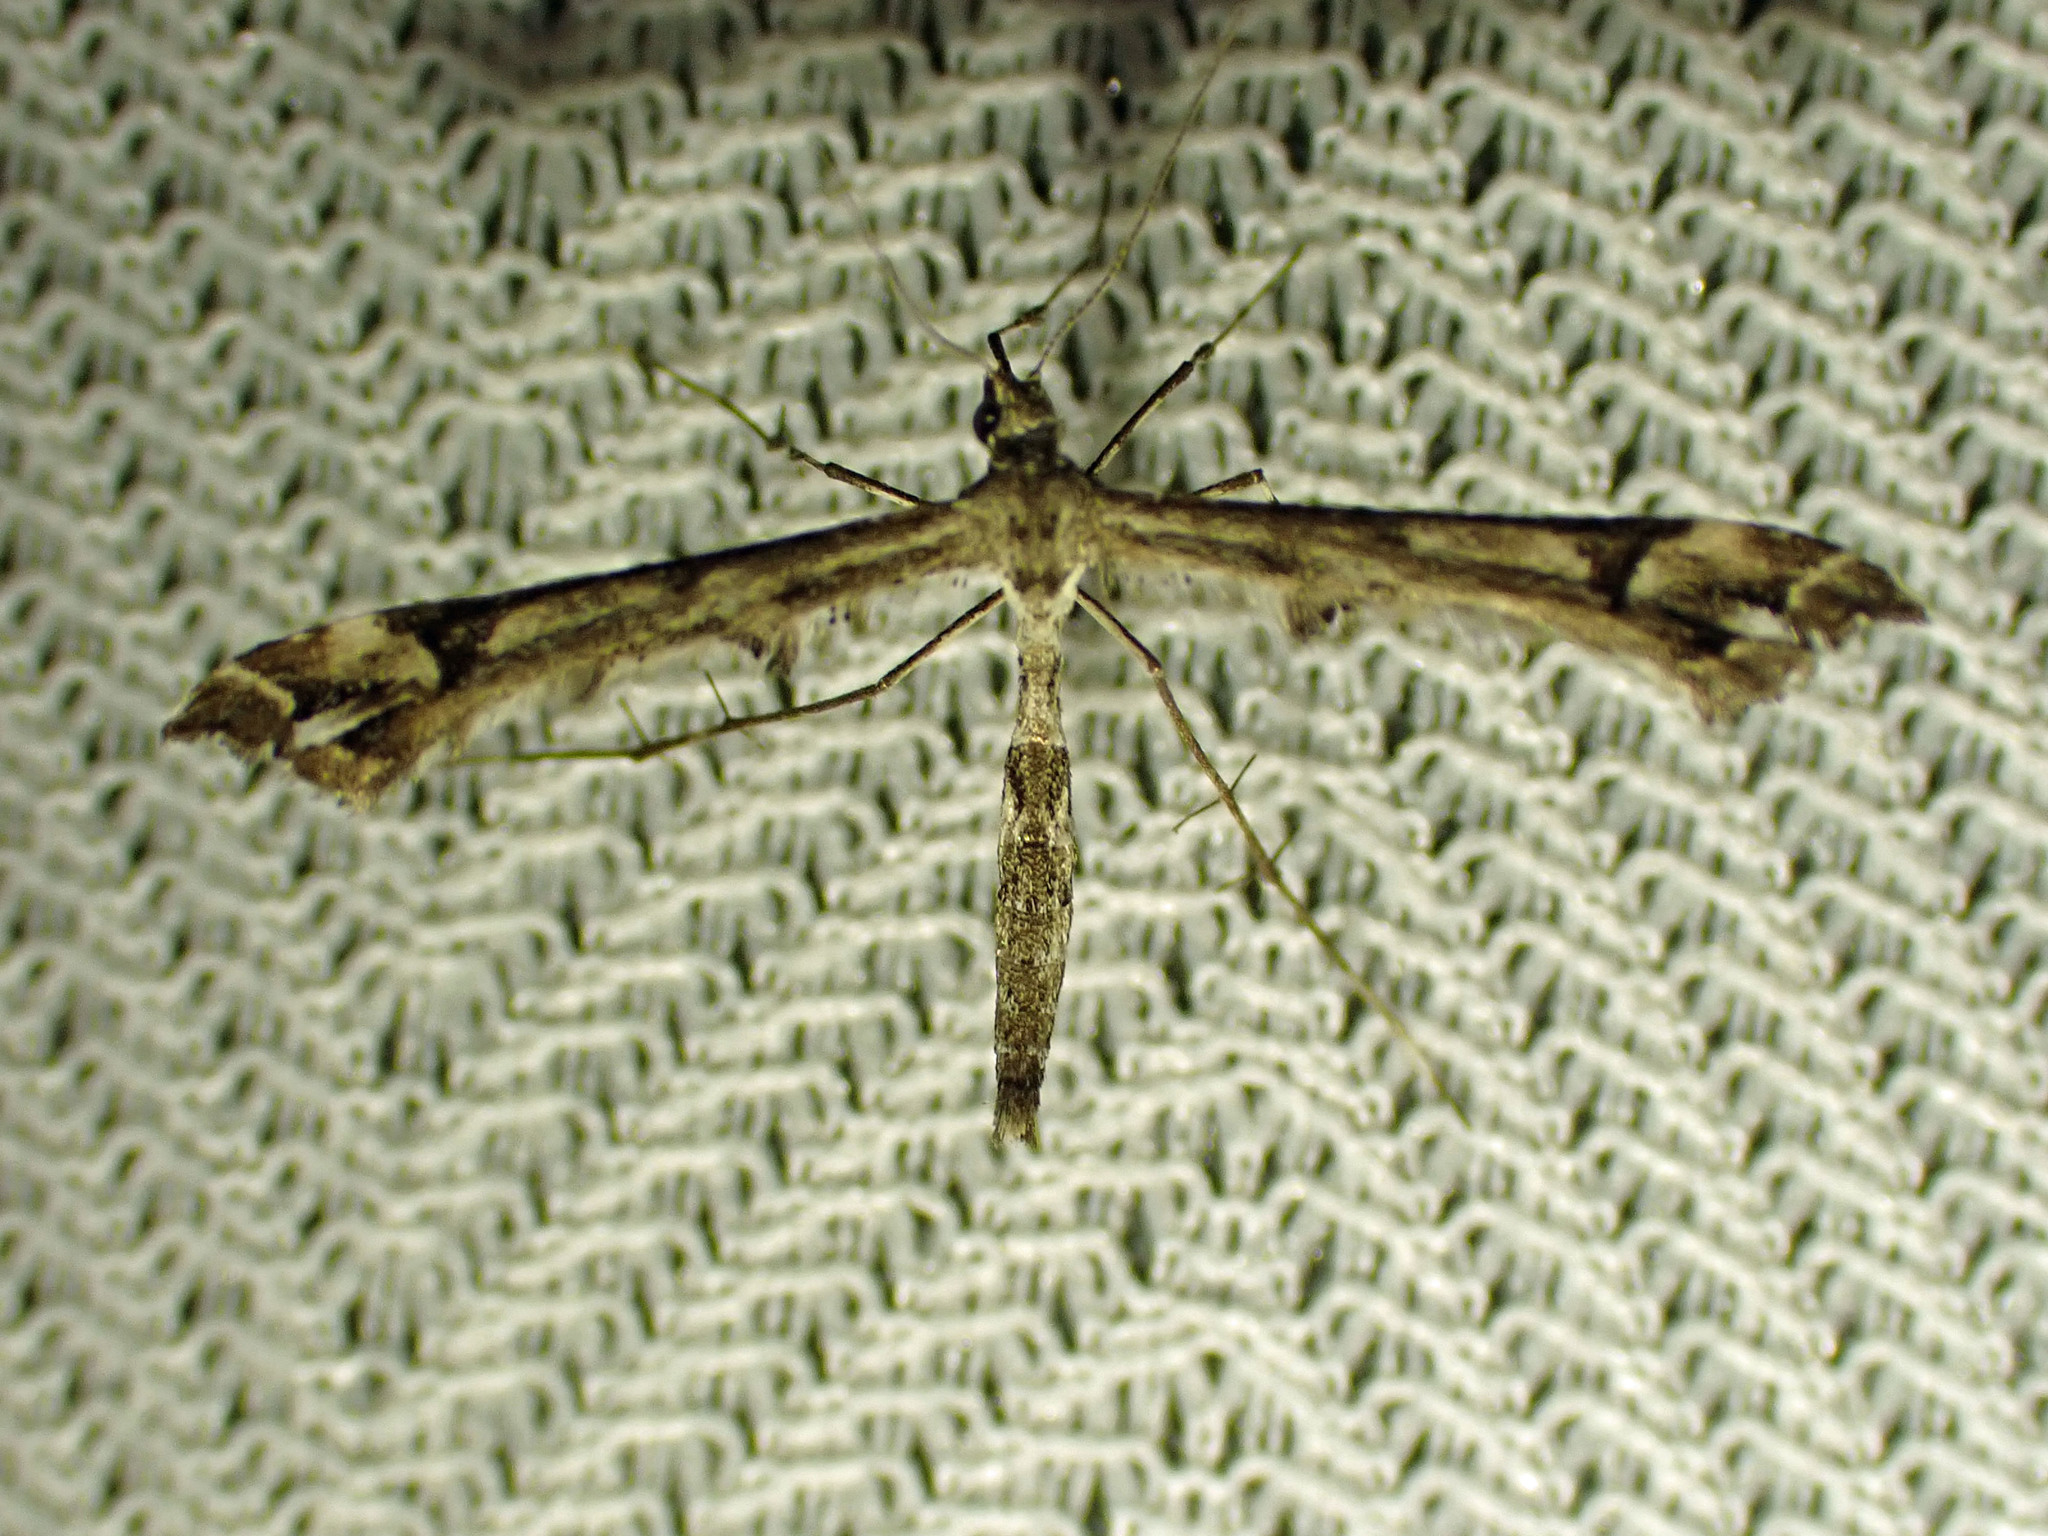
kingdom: Animalia
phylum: Arthropoda
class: Insecta
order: Lepidoptera
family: Pterophoridae
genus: Amblyptilia
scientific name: Amblyptilia pica
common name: Geranium plume moth
